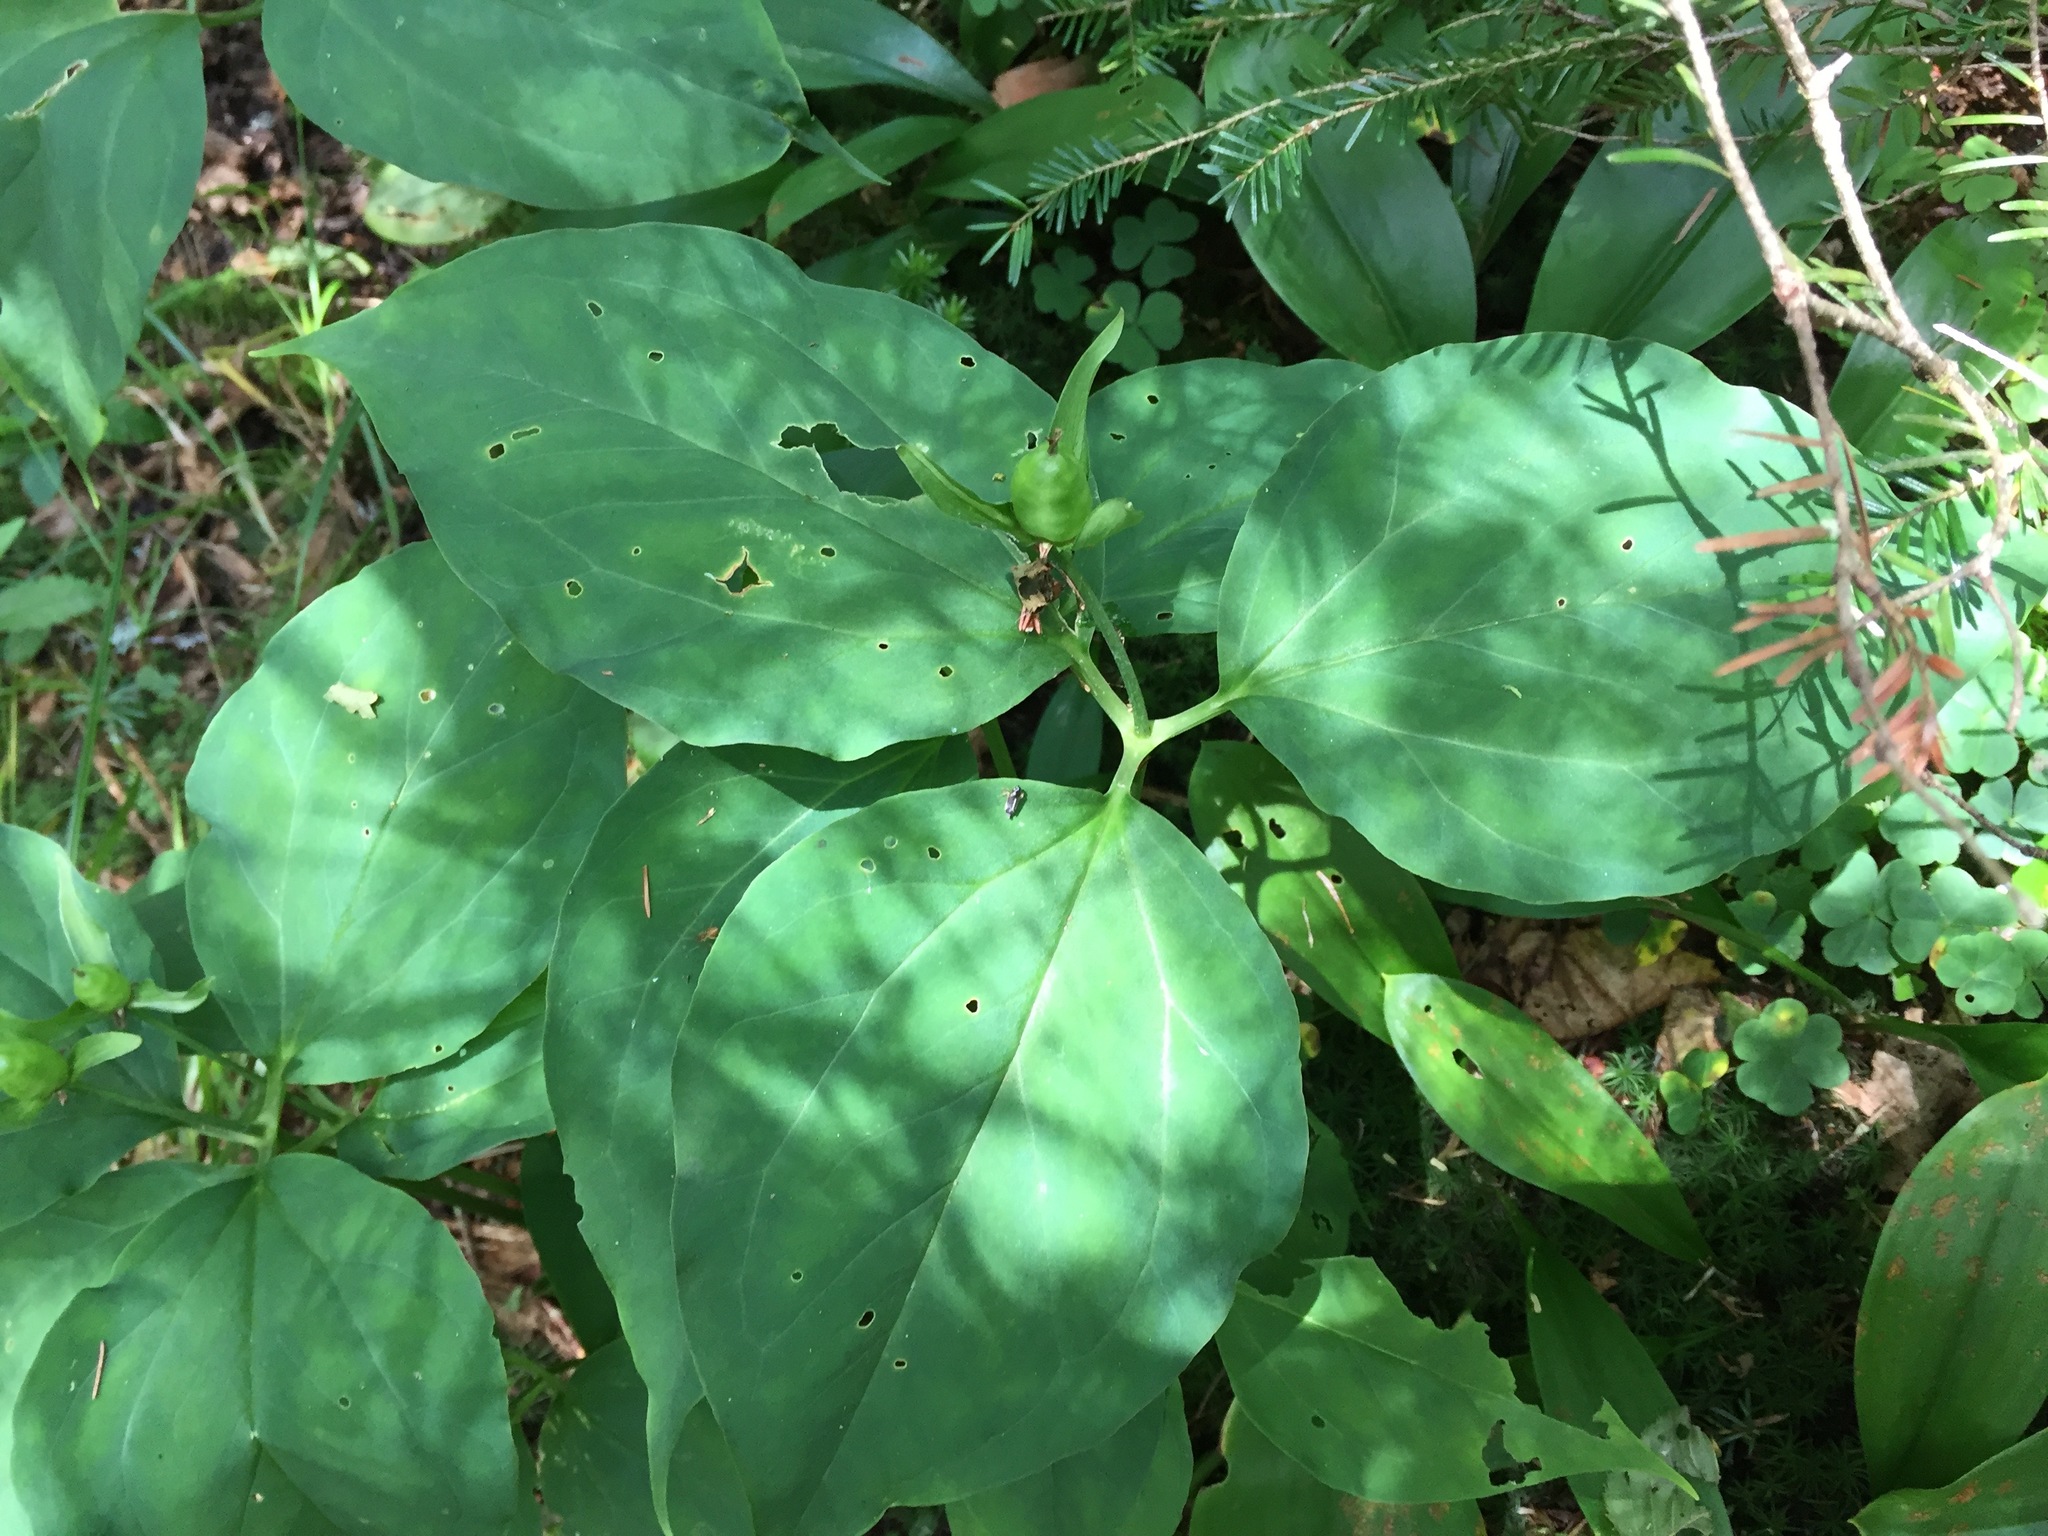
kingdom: Plantae
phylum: Tracheophyta
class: Liliopsida
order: Liliales
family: Melanthiaceae
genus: Trillium
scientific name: Trillium undulatum
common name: Paint trillium
